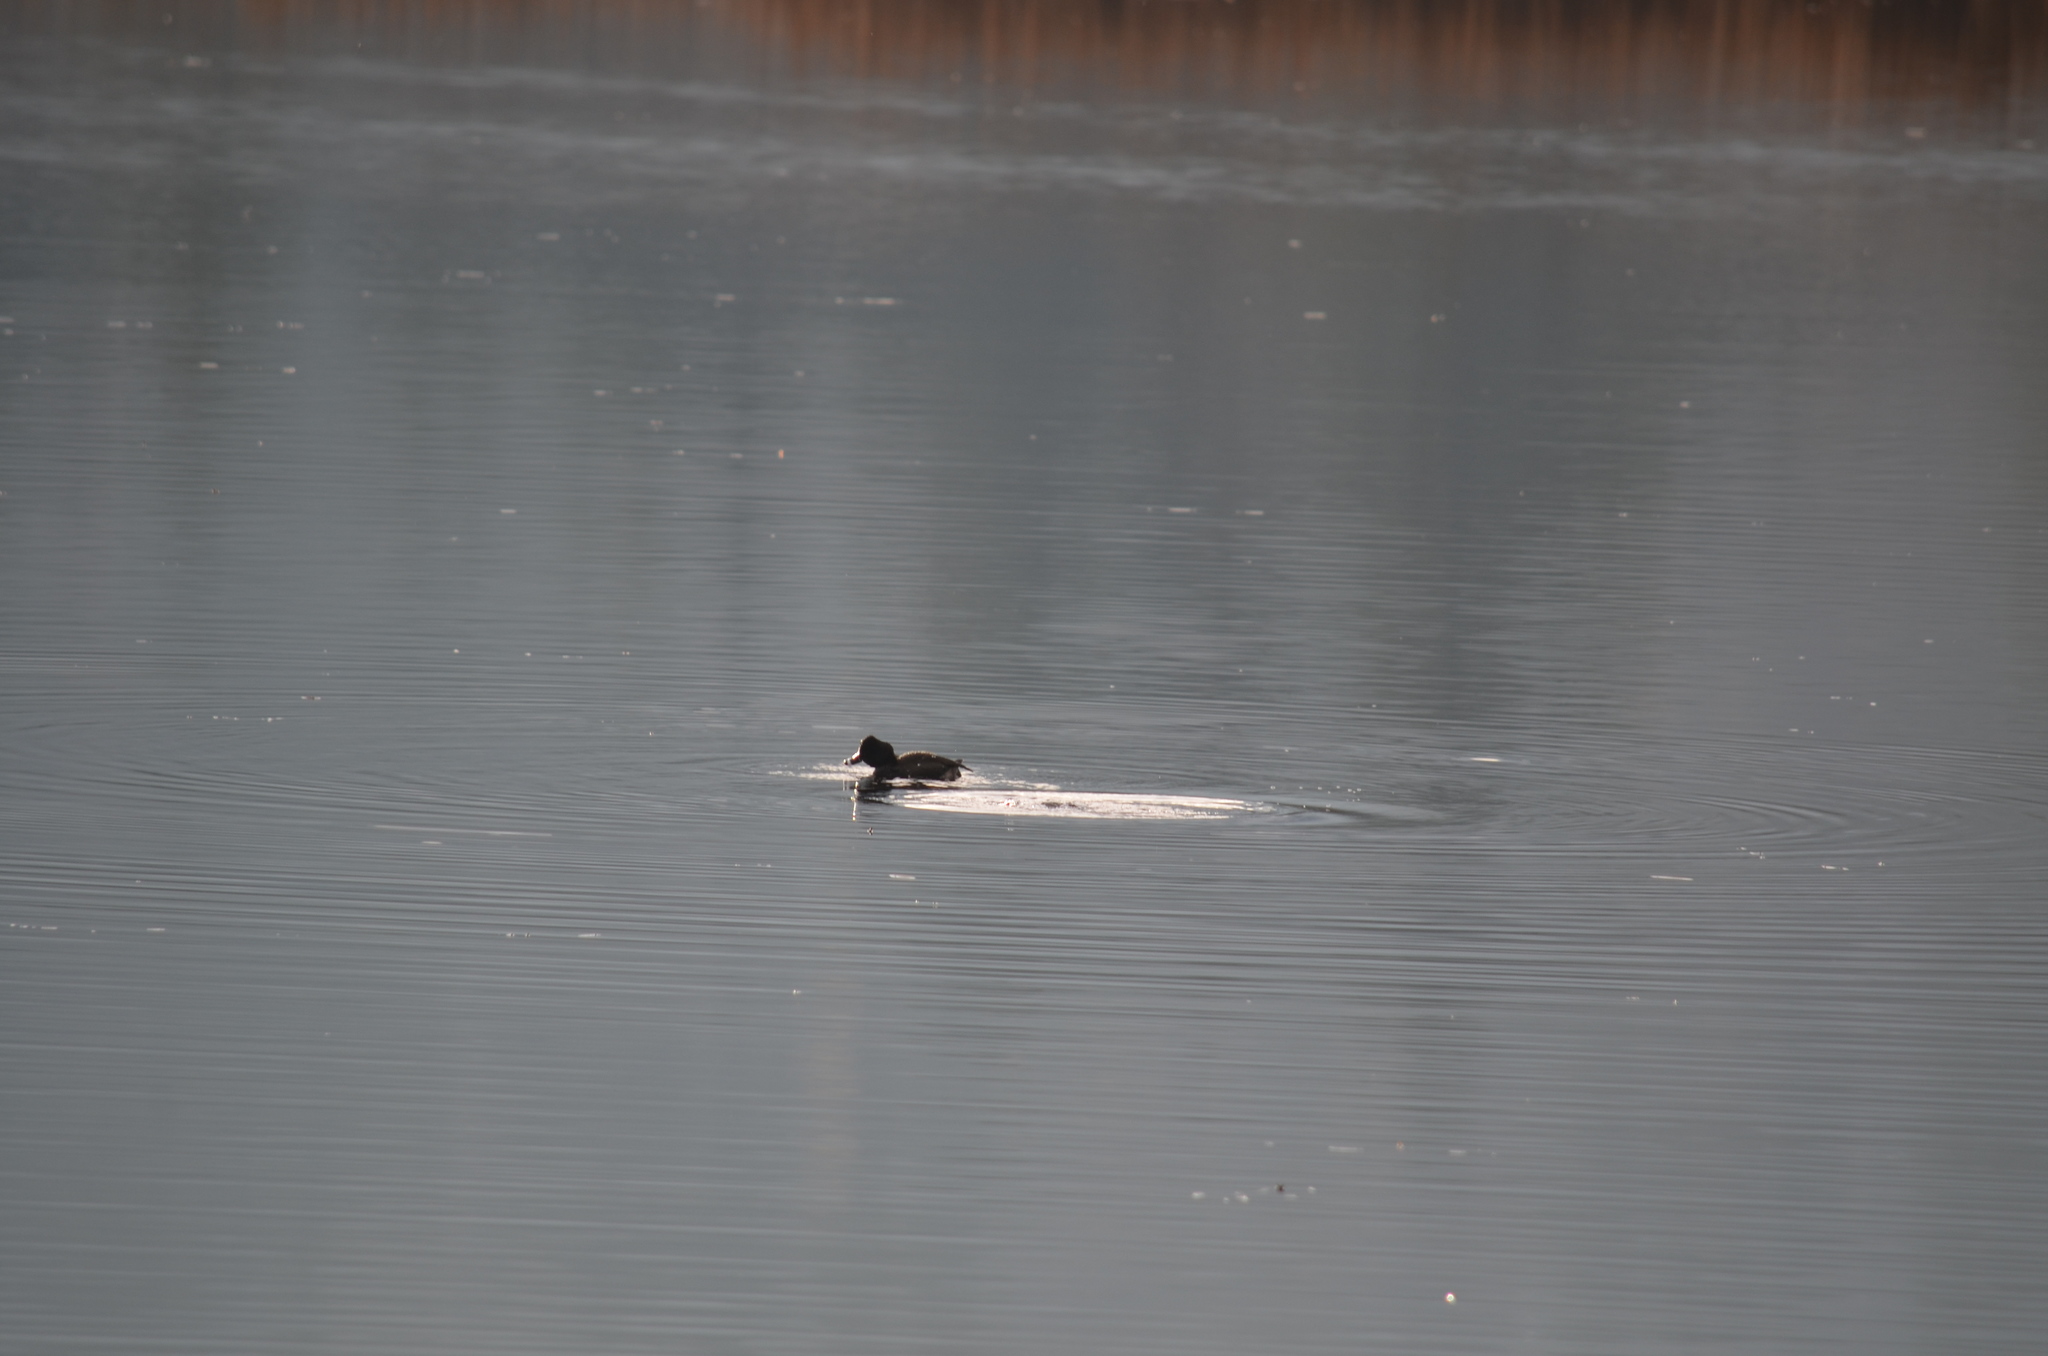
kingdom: Animalia
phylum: Chordata
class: Aves
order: Anseriformes
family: Anatidae
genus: Aythya
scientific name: Aythya collaris
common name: Ring-necked duck
